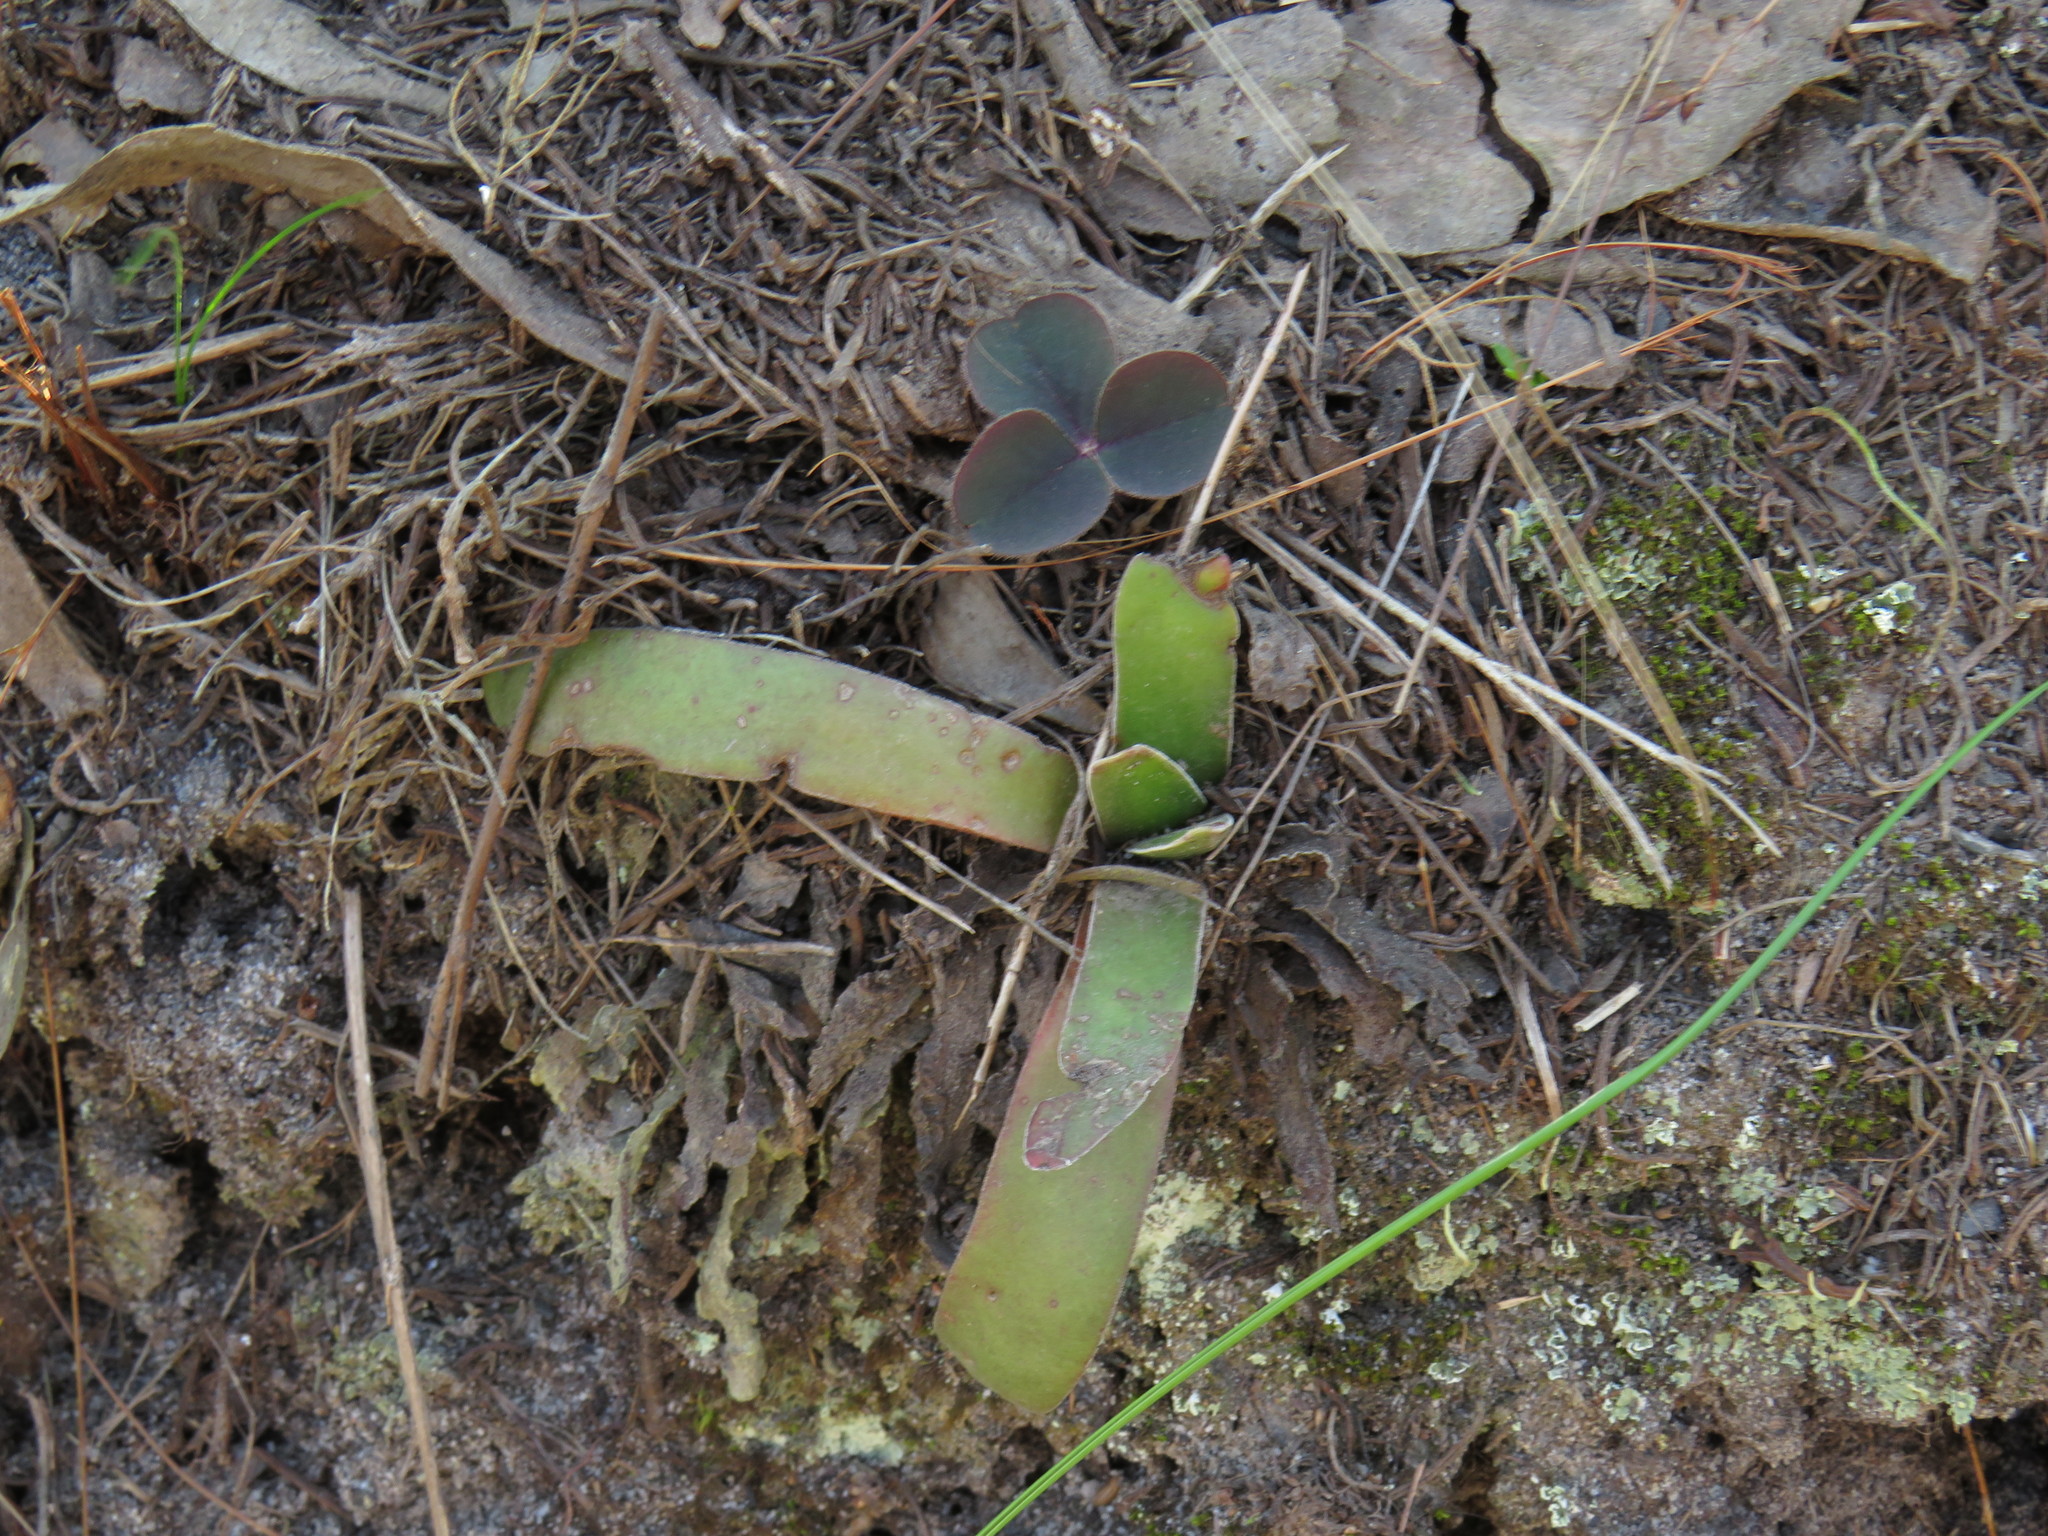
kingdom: Plantae
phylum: Tracheophyta
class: Magnoliopsida
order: Saxifragales
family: Crassulaceae
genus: Crassula
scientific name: Crassula nudicaulis
